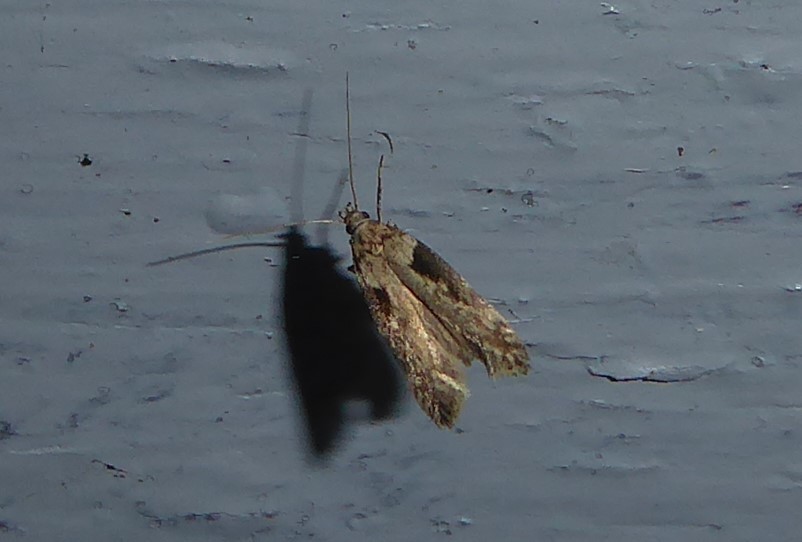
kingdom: Animalia
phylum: Arthropoda
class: Insecta
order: Lepidoptera
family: Gelechiidae
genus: Symmetrischema
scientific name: Symmetrischema tangolias
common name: Moth
